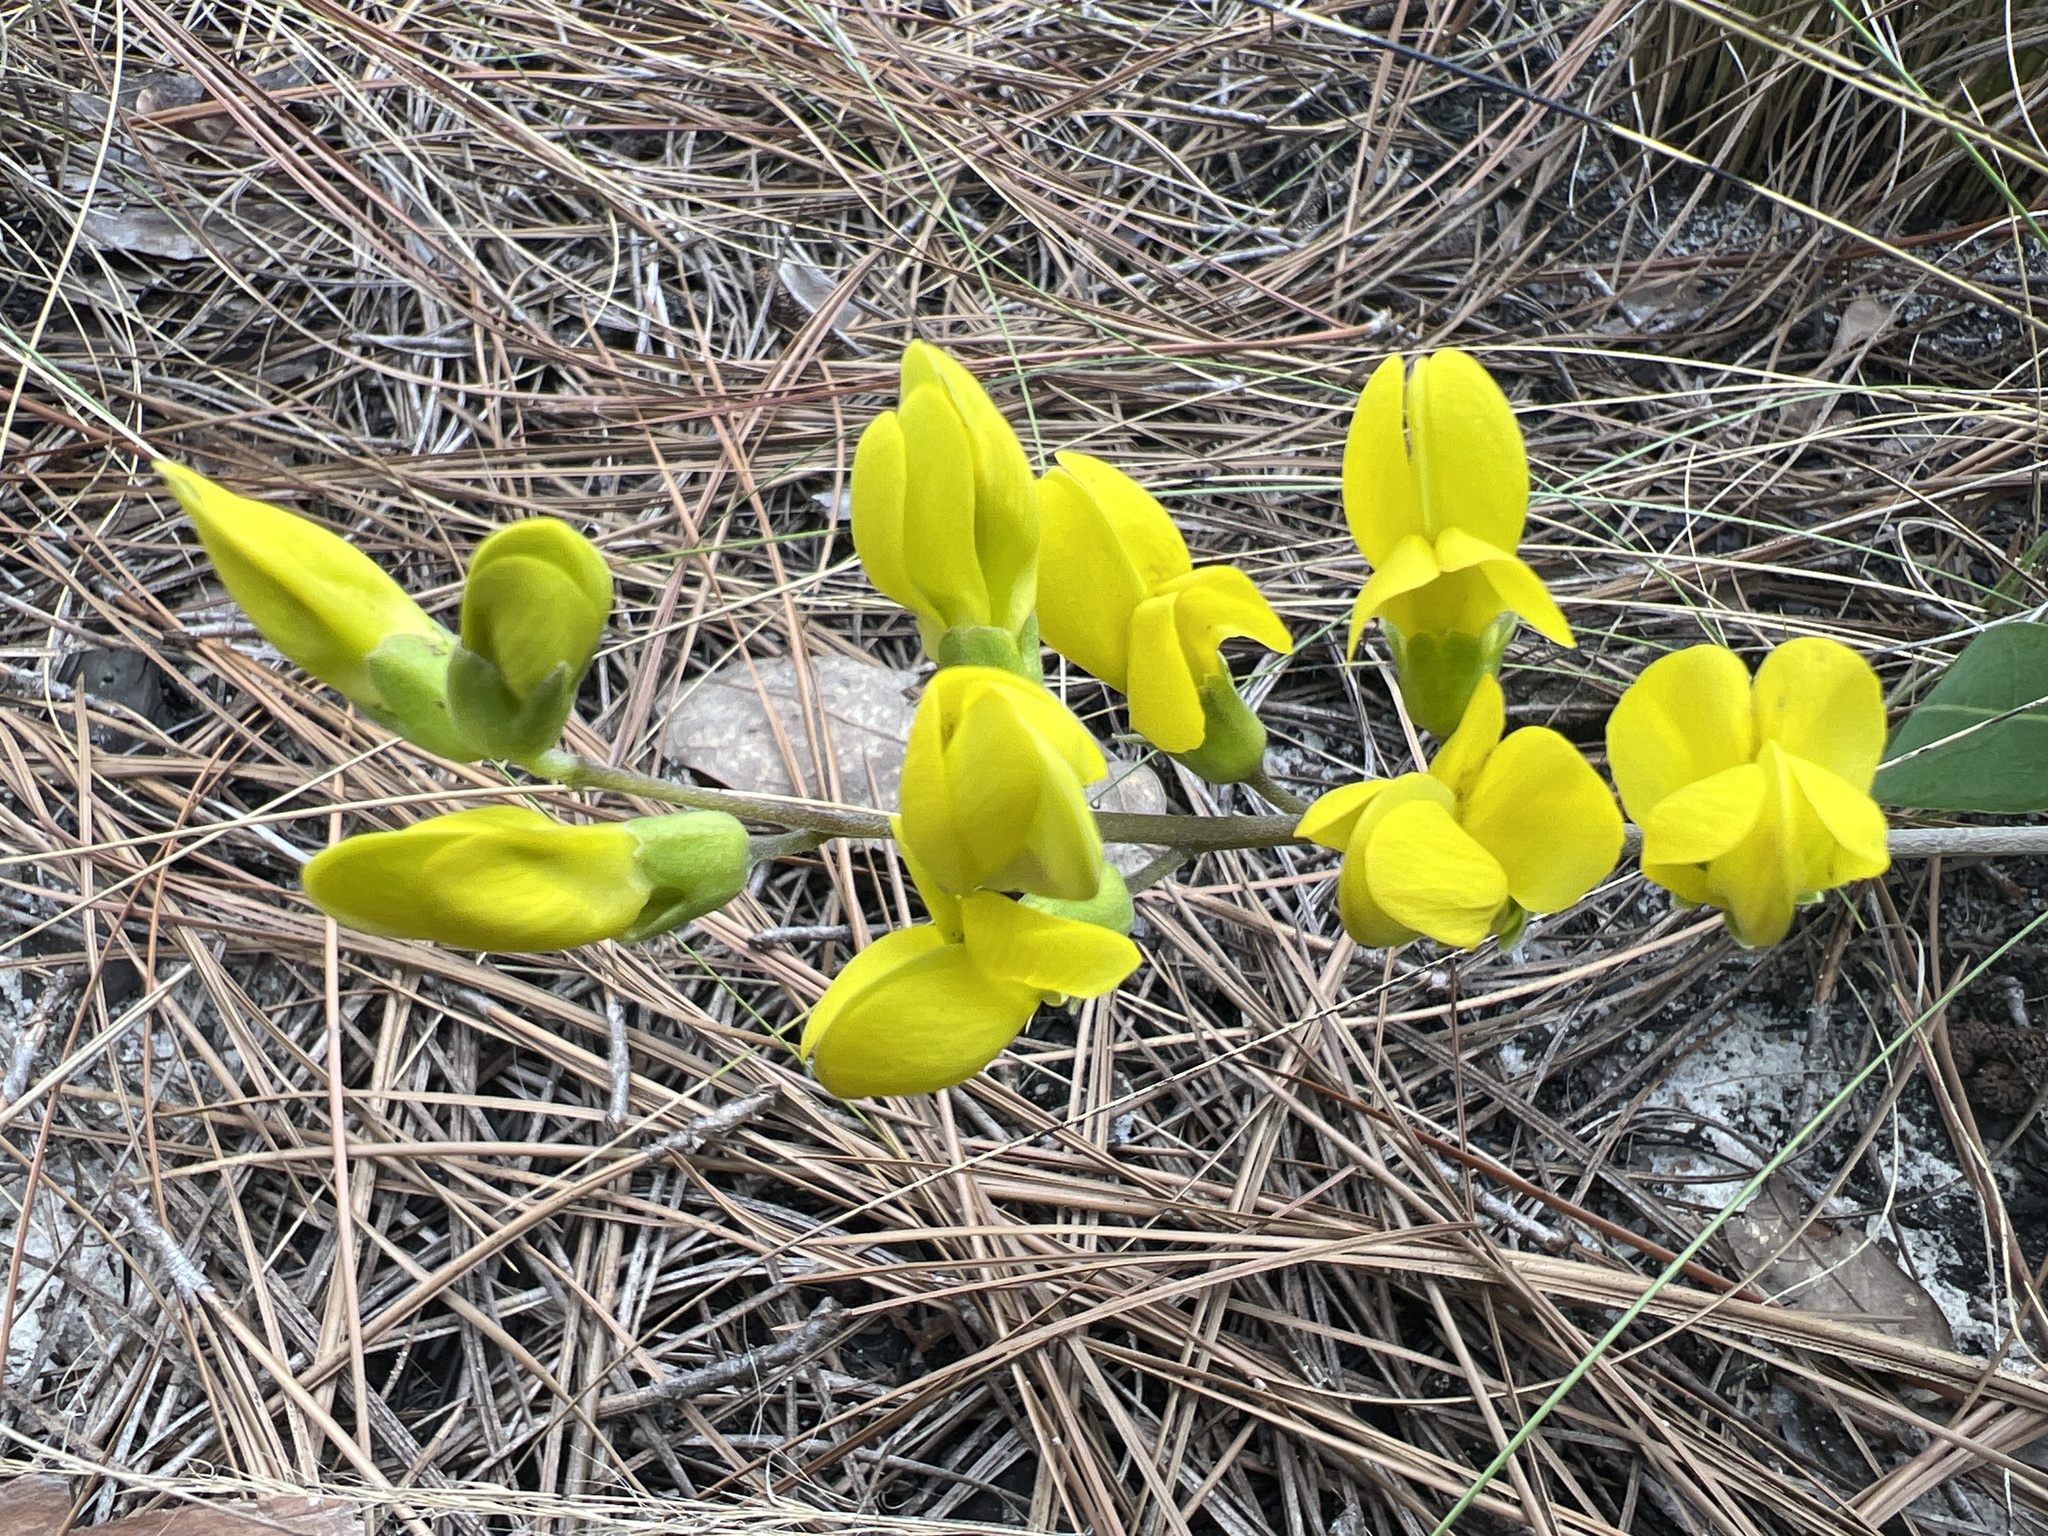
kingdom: Plantae
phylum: Tracheophyta
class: Magnoliopsida
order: Fabales
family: Fabaceae
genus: Baptisia
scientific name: Baptisia cinerea
